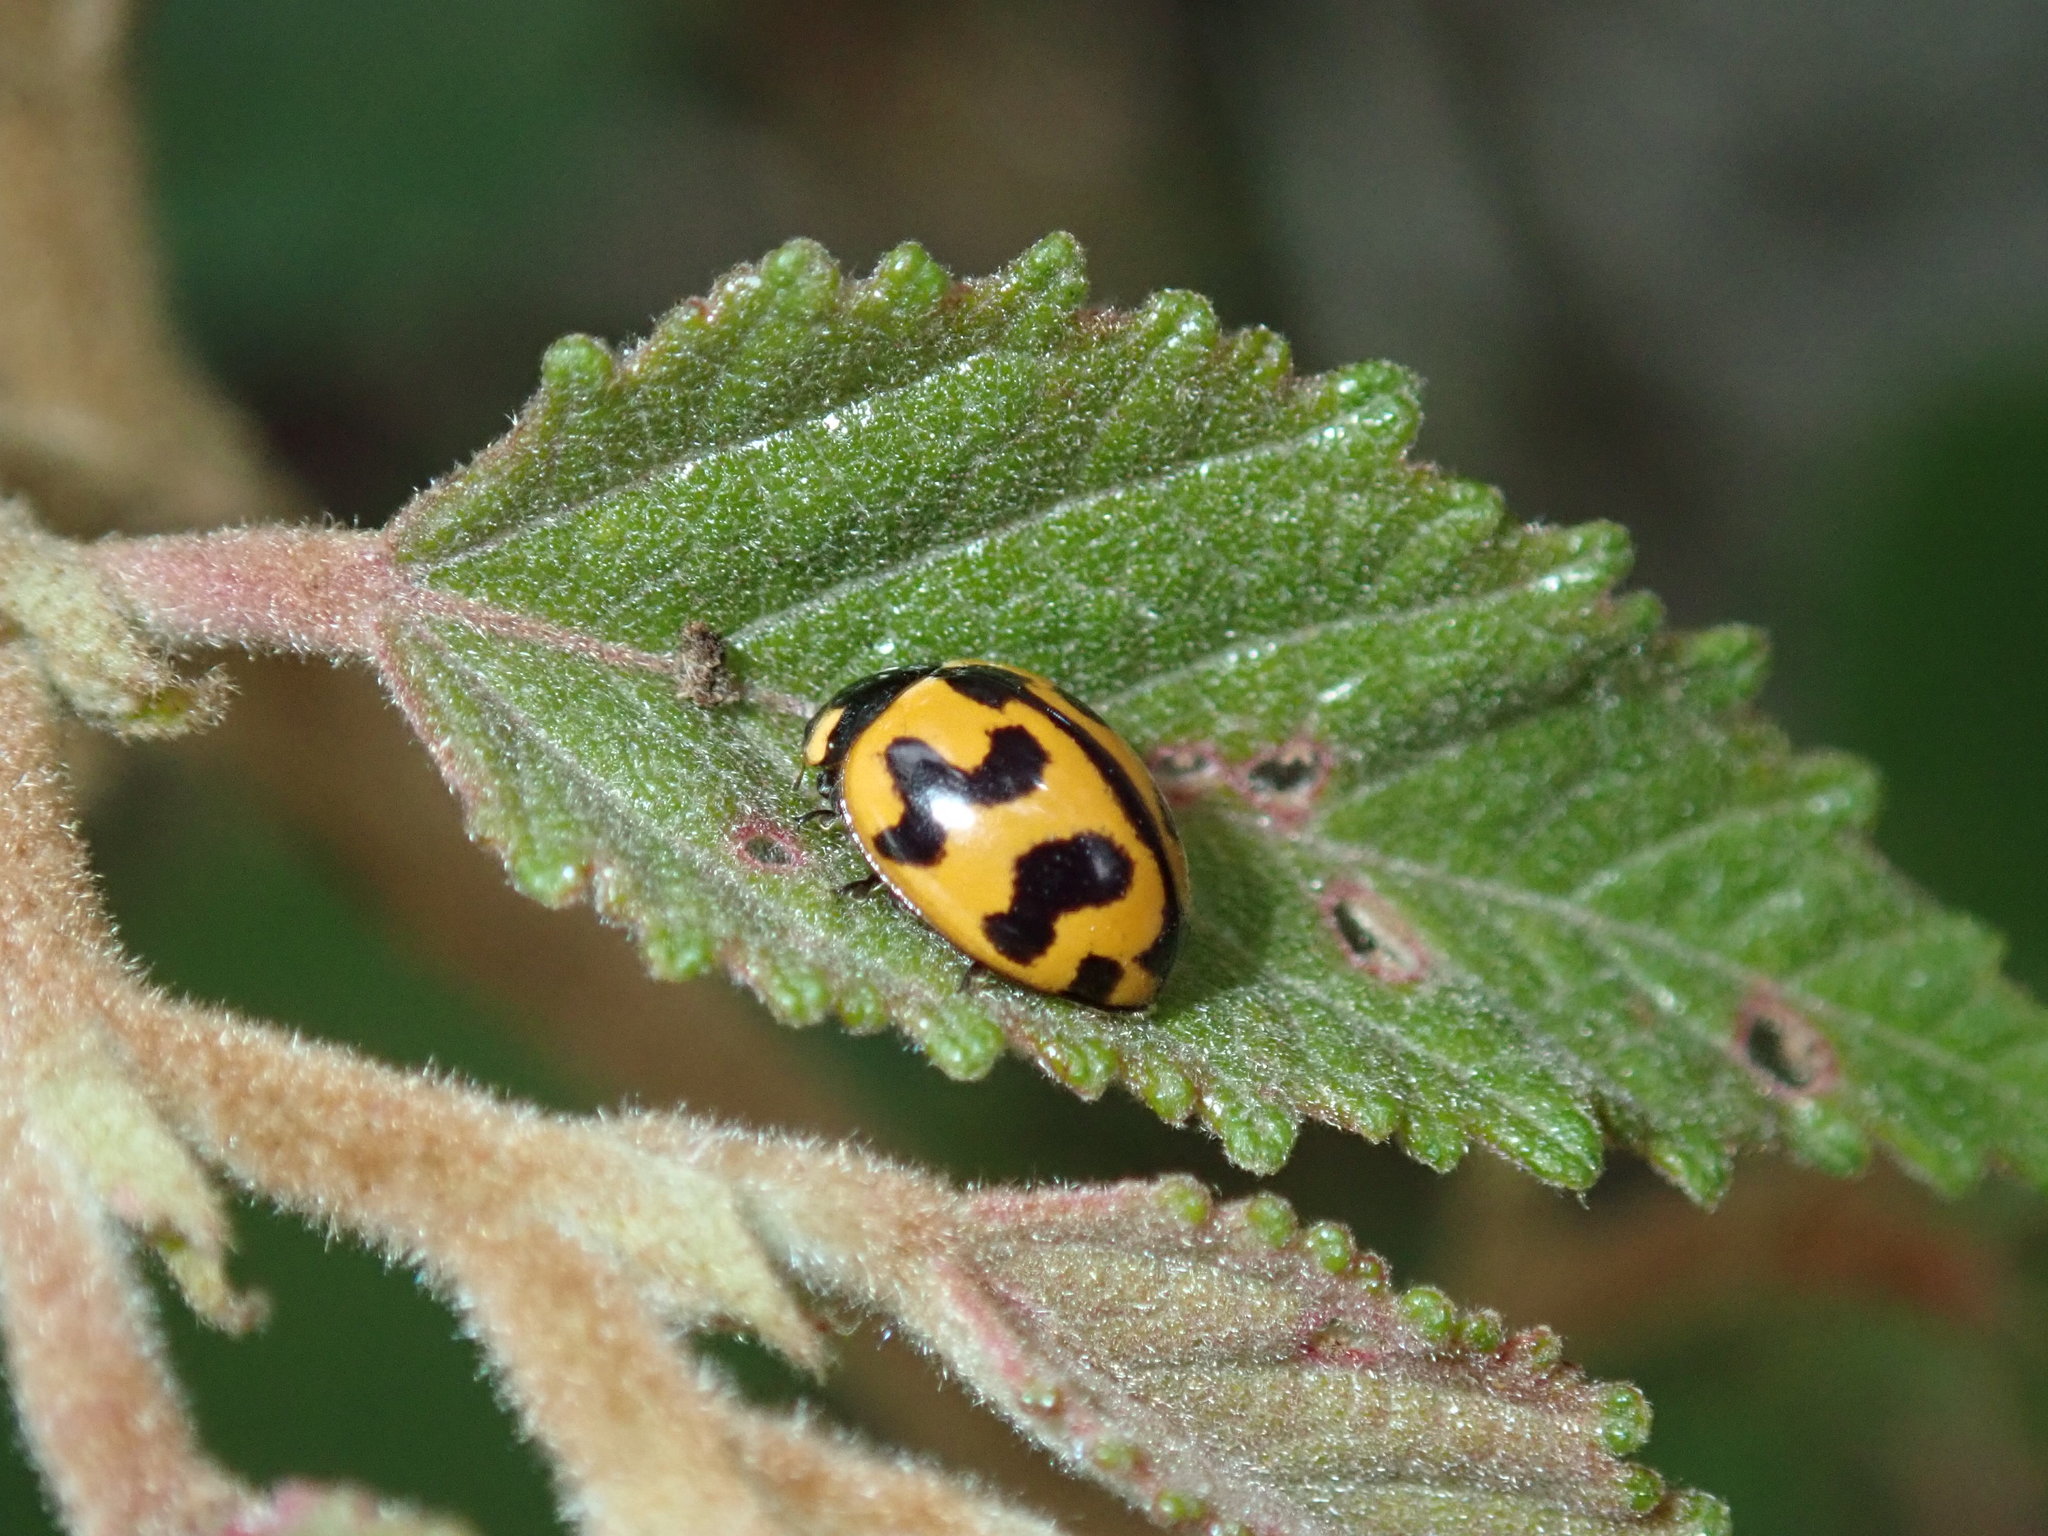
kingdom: Animalia
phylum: Arthropoda
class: Insecta
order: Coleoptera
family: Coccinellidae
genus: Coccinella
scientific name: Coccinella transversalis
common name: Transverse lady beetle
